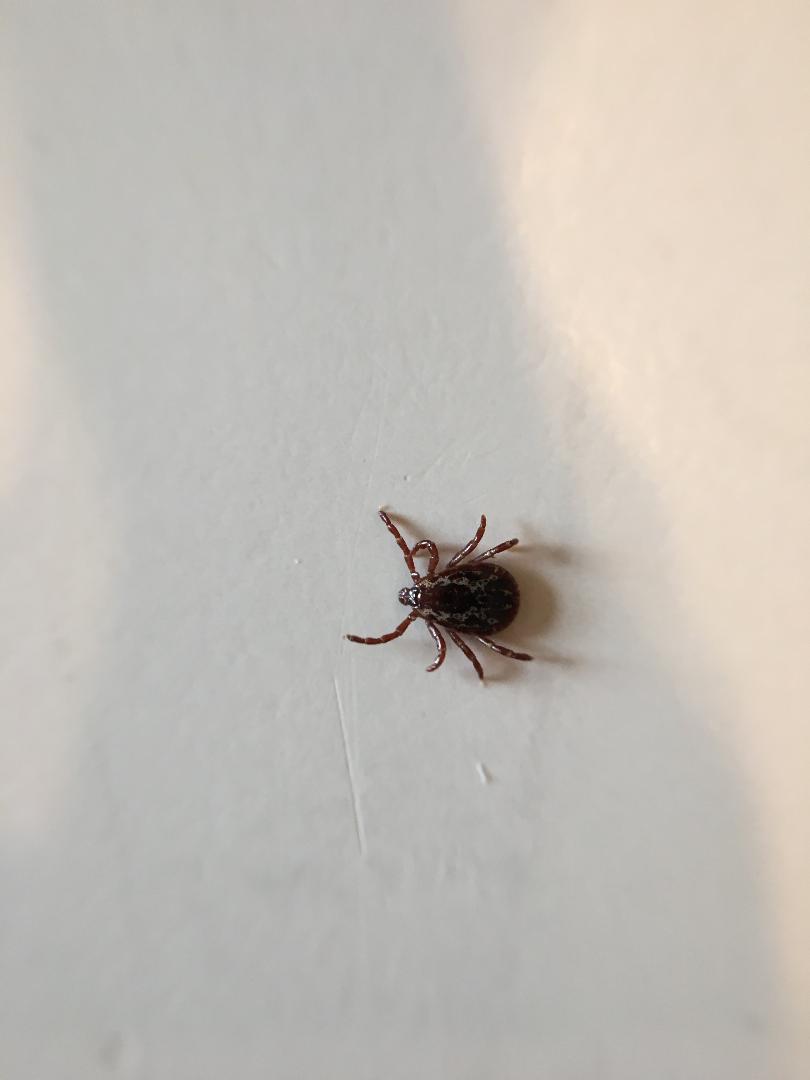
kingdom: Animalia
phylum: Arthropoda
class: Arachnida
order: Ixodida
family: Ixodidae
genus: Dermacentor
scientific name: Dermacentor variabilis
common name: American dog tick
